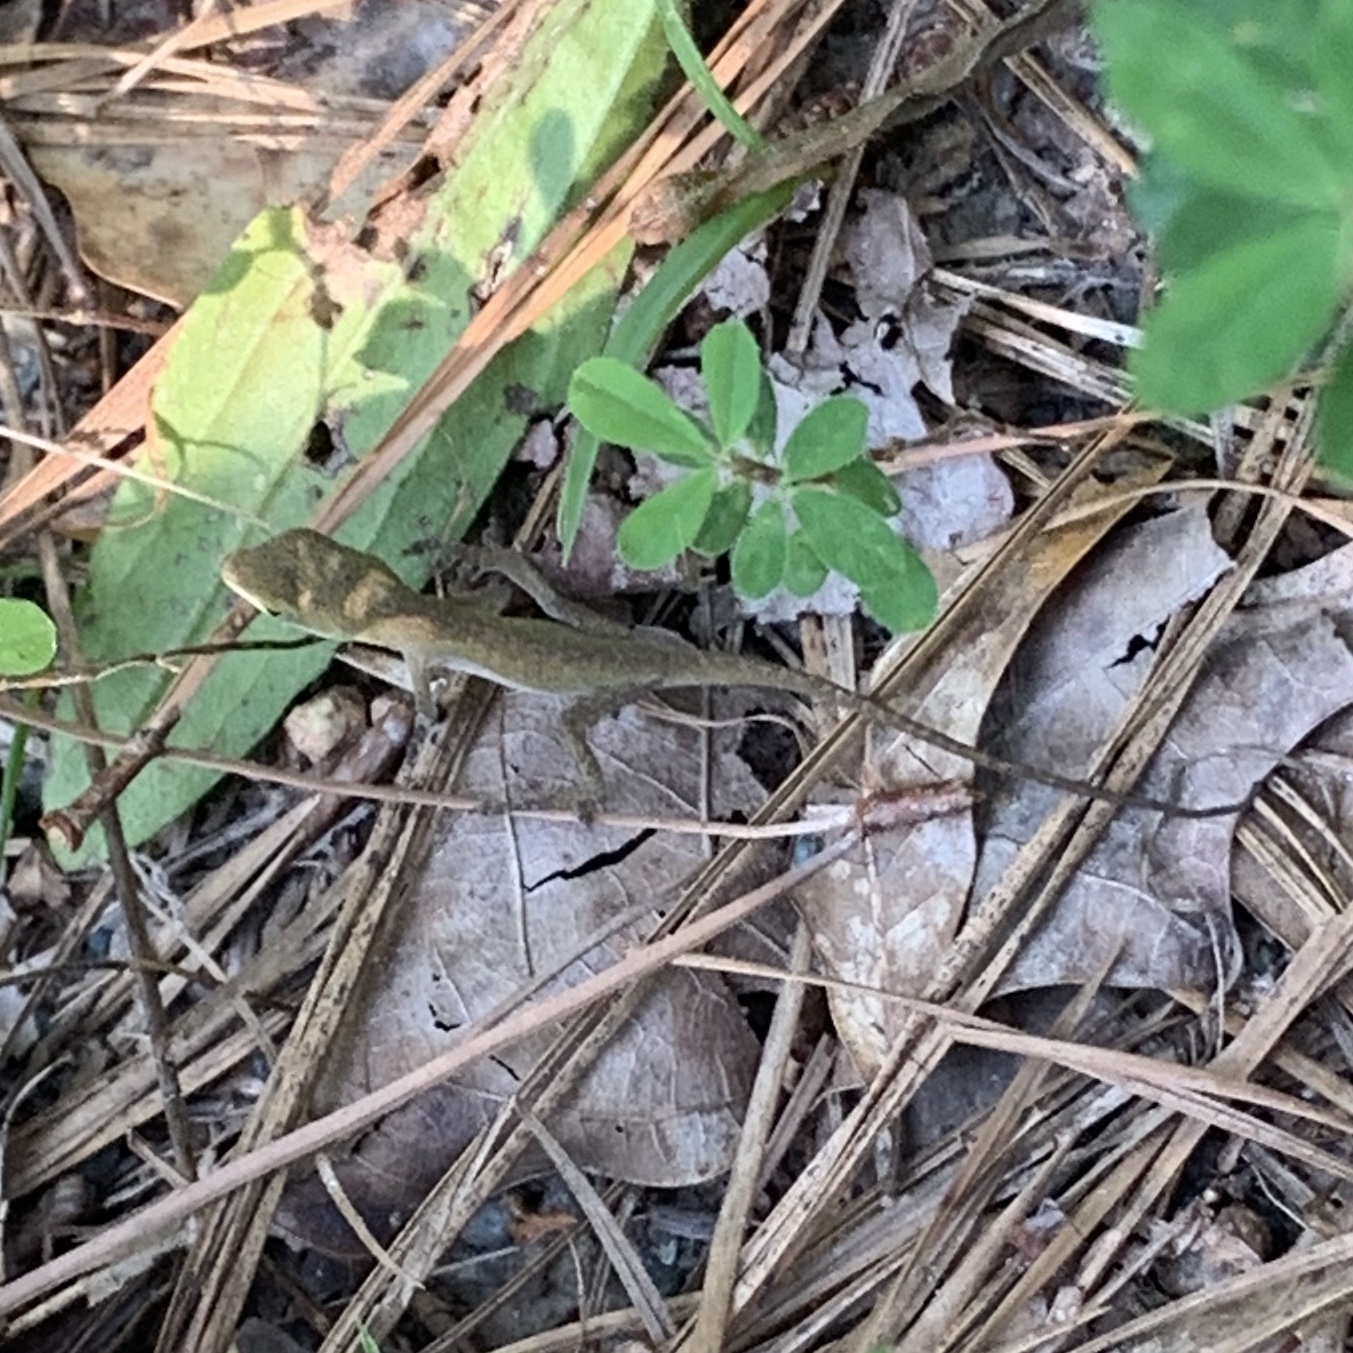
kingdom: Animalia
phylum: Chordata
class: Squamata
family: Dactyloidae
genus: Anolis
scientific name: Anolis carolinensis
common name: Green anole
